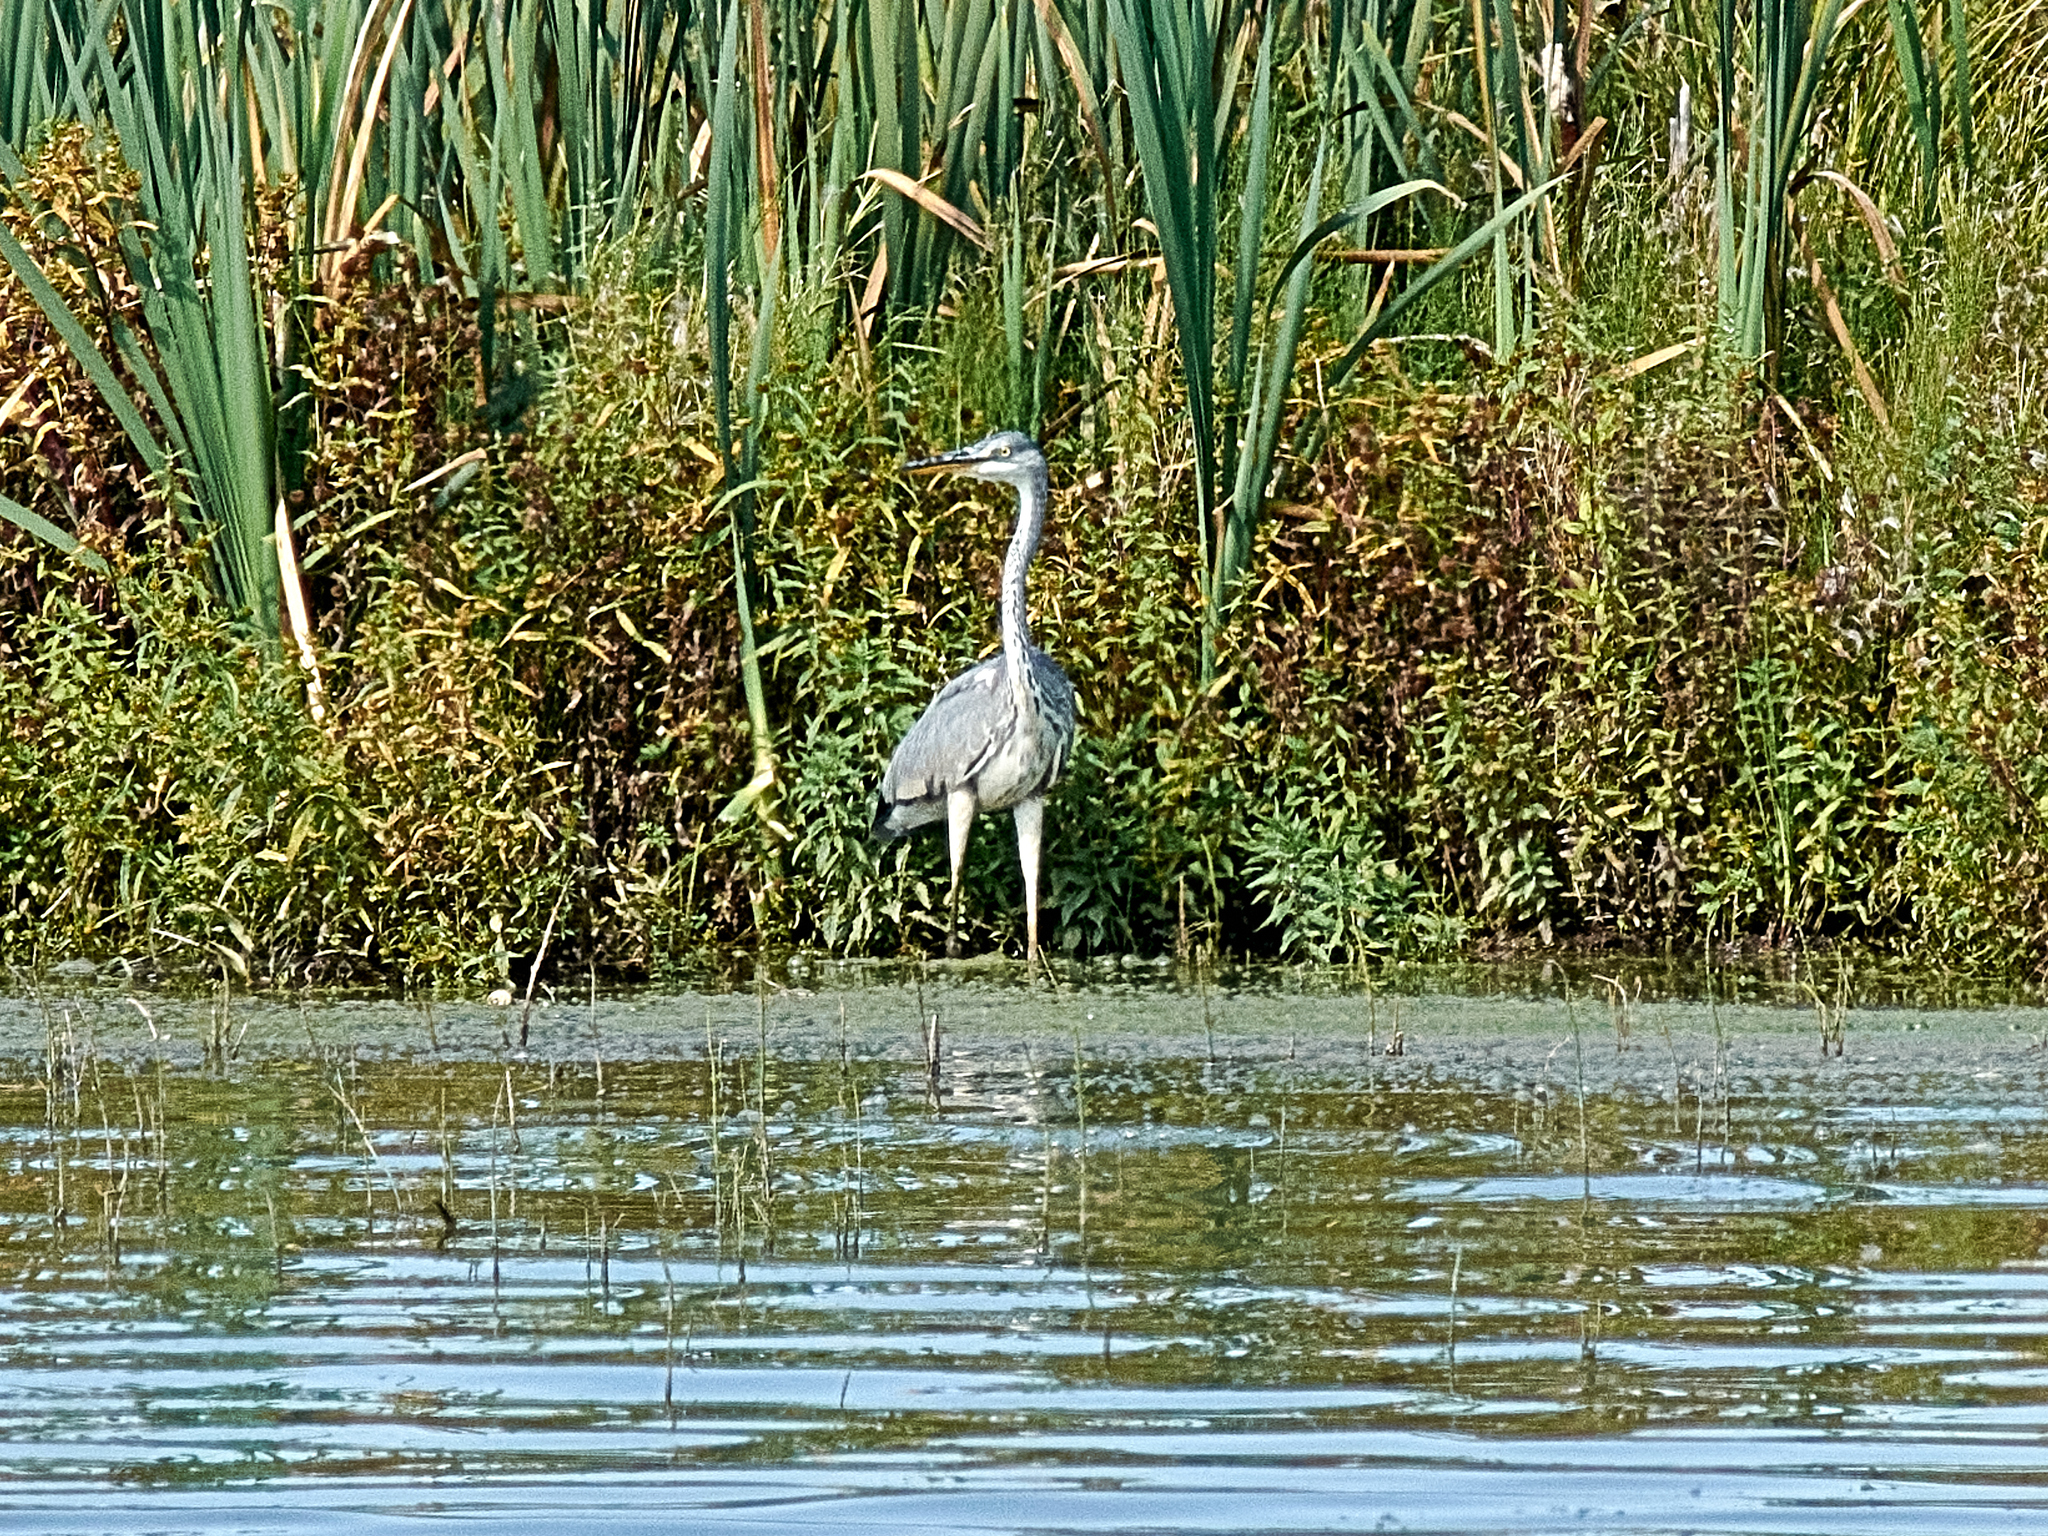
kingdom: Animalia
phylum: Chordata
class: Aves
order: Pelecaniformes
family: Ardeidae
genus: Ardea
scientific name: Ardea cinerea
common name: Grey heron
